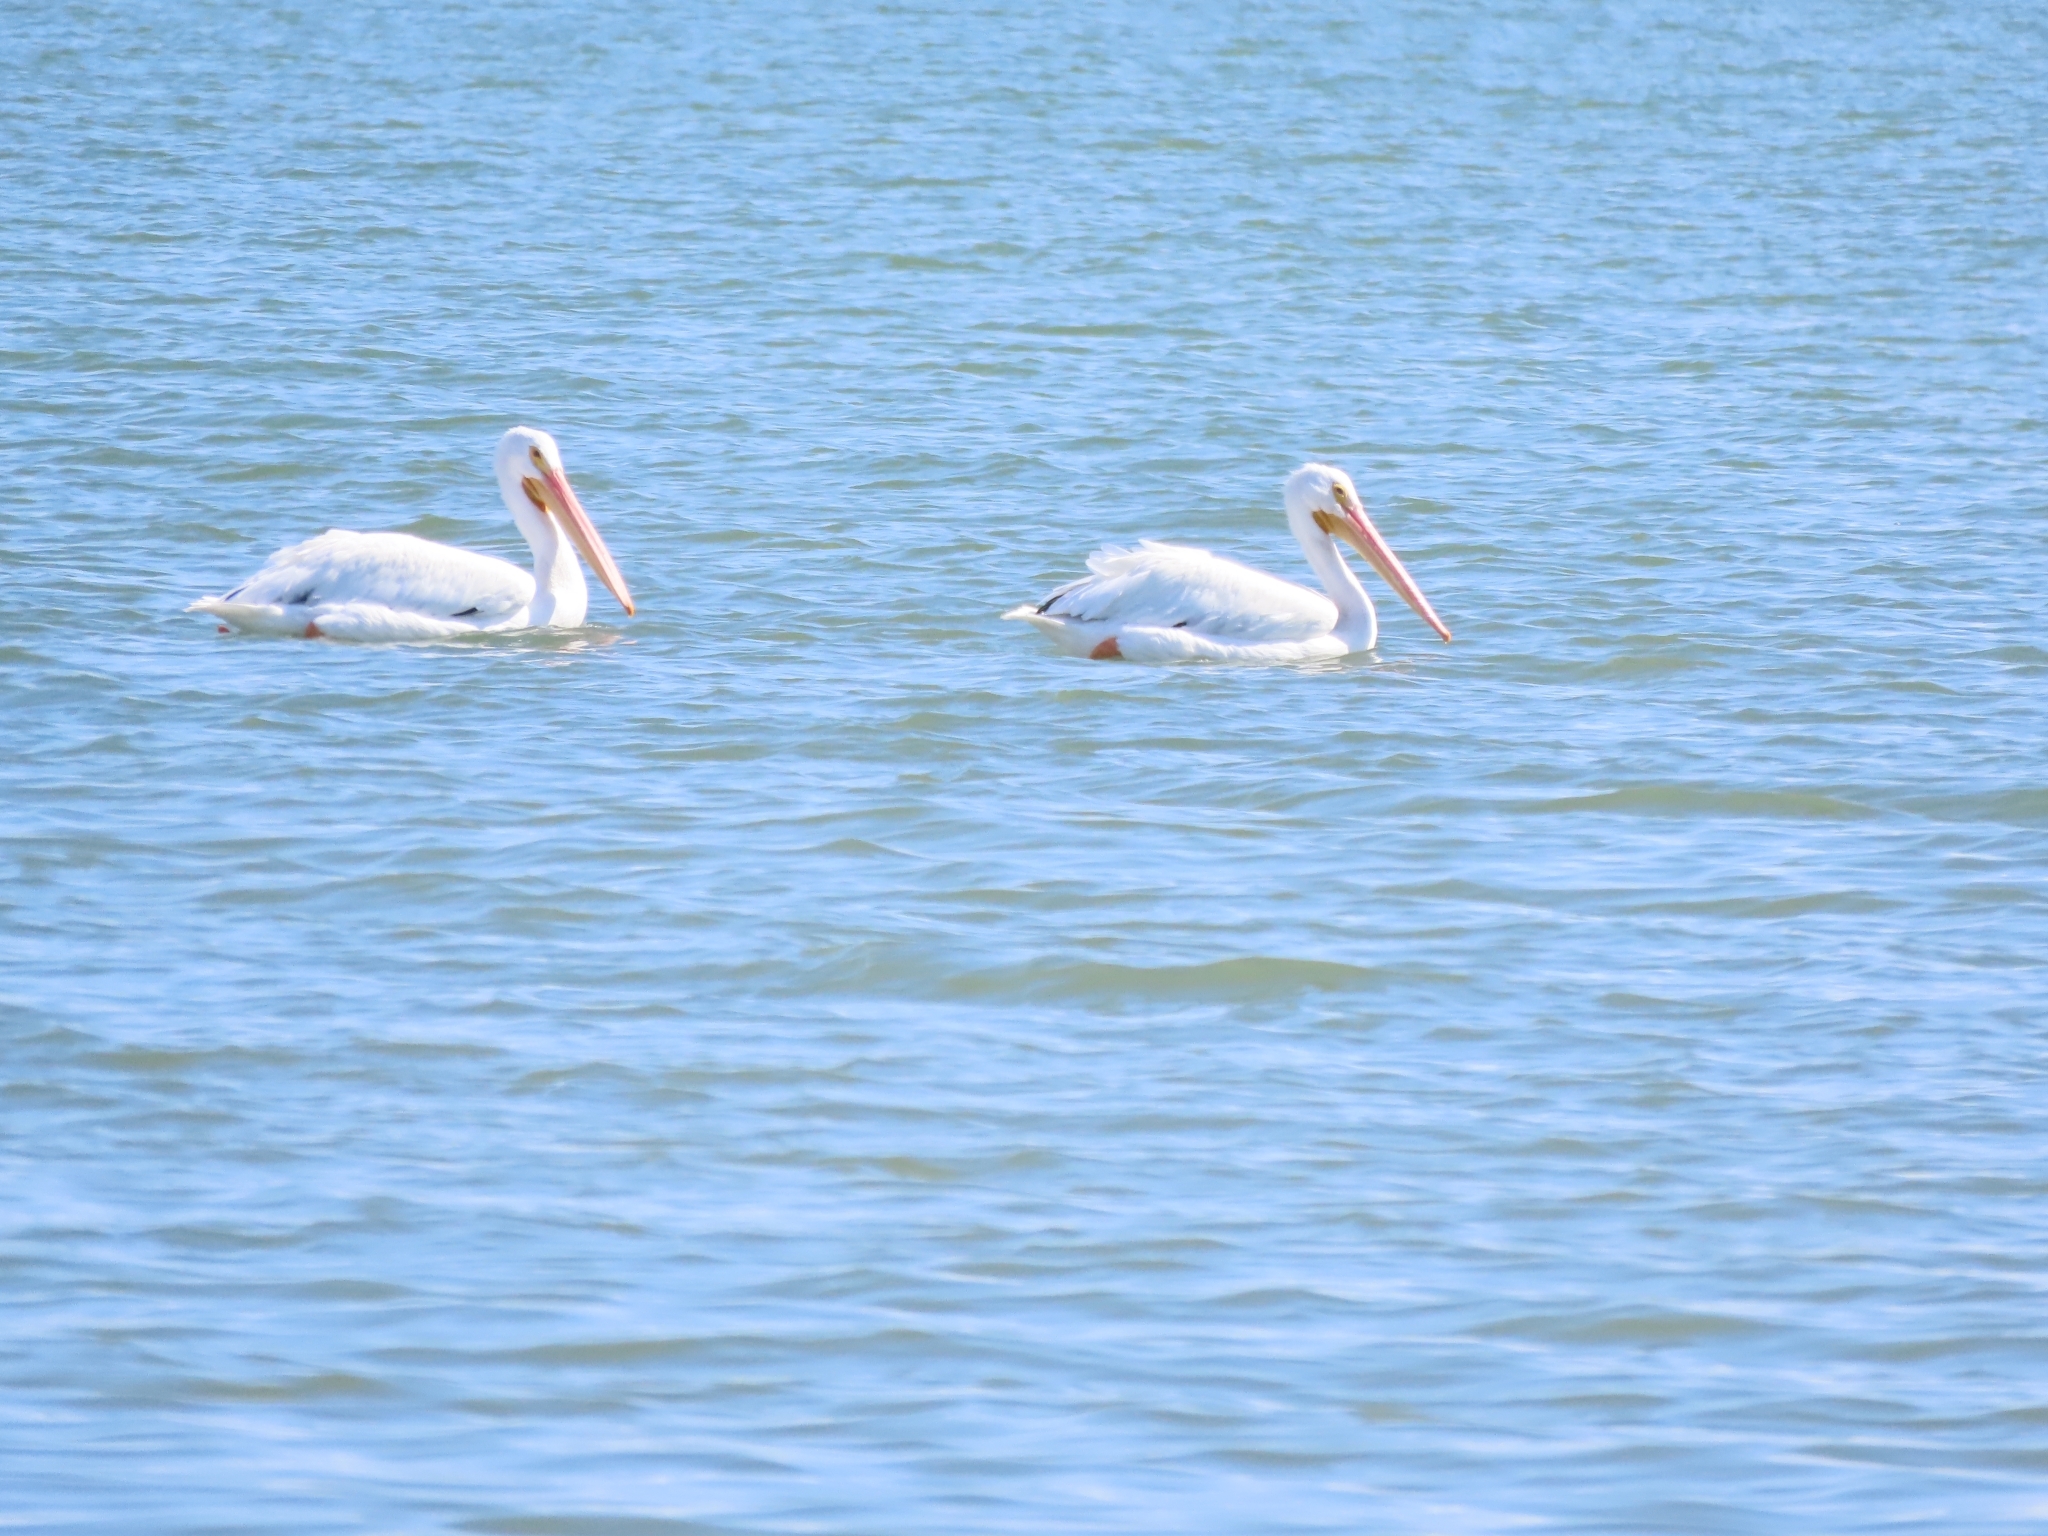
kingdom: Animalia
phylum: Chordata
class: Aves
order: Pelecaniformes
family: Pelecanidae
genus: Pelecanus
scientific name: Pelecanus erythrorhynchos
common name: American white pelican
